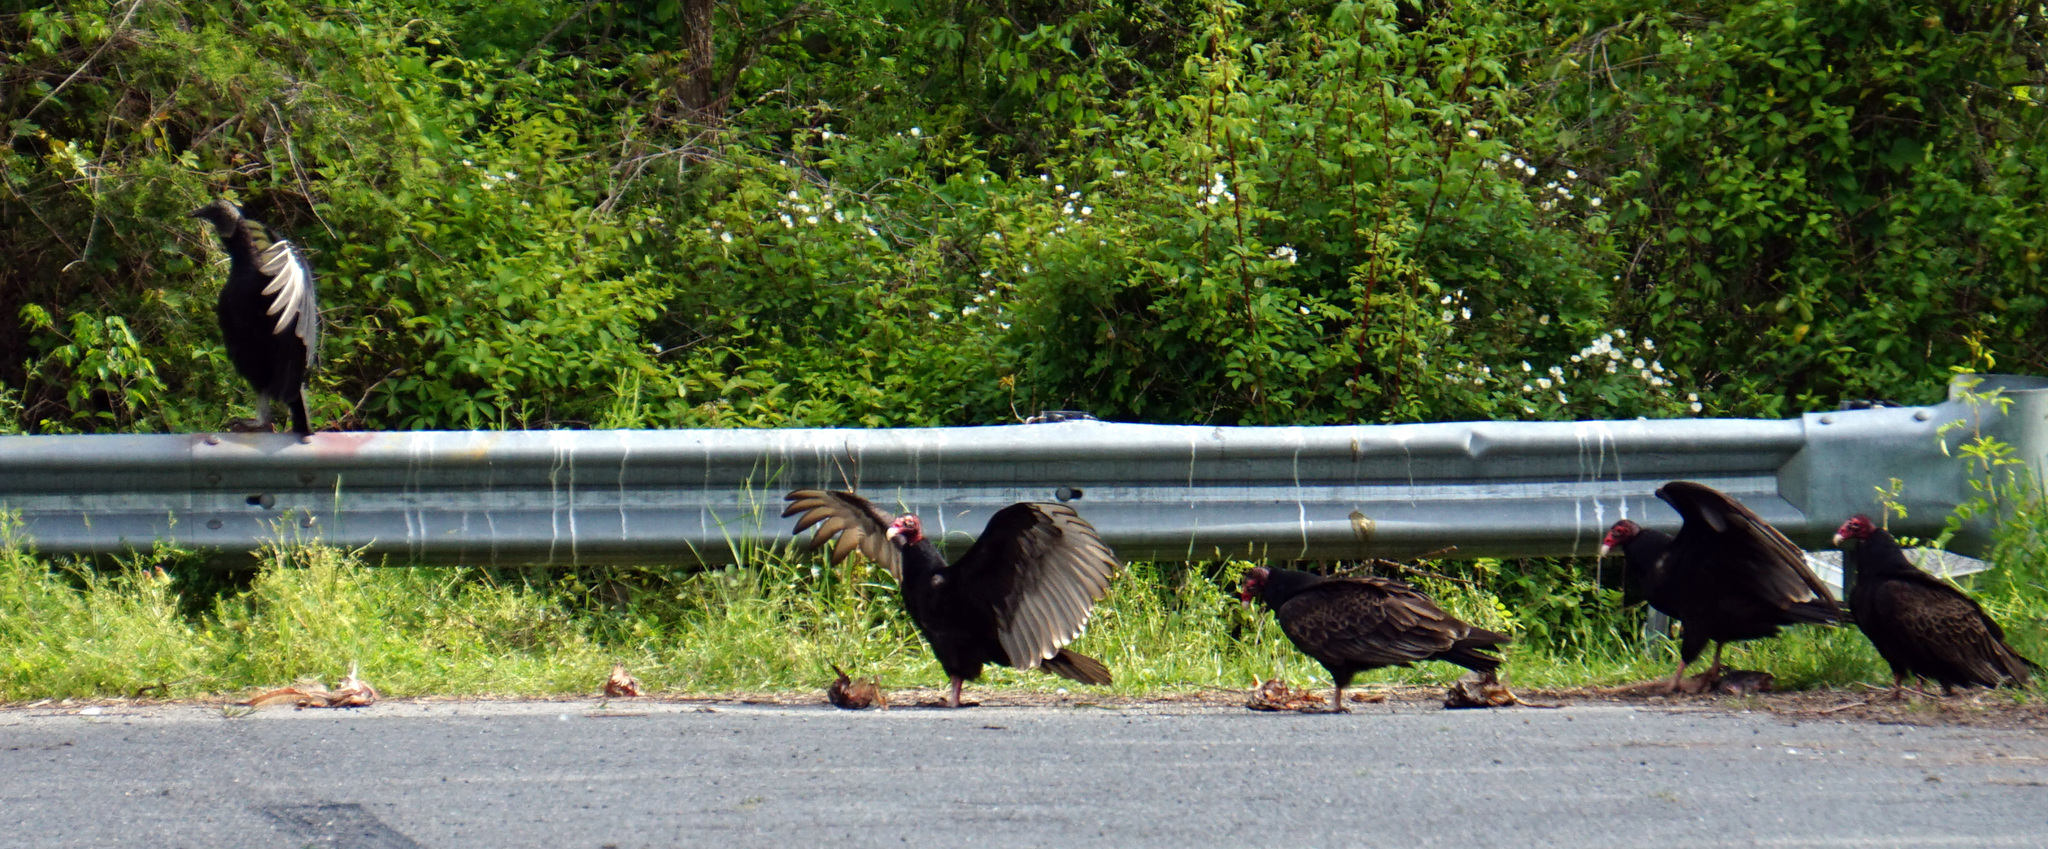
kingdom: Animalia
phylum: Chordata
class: Aves
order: Accipitriformes
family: Cathartidae
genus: Cathartes
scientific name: Cathartes aura
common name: Turkey vulture
